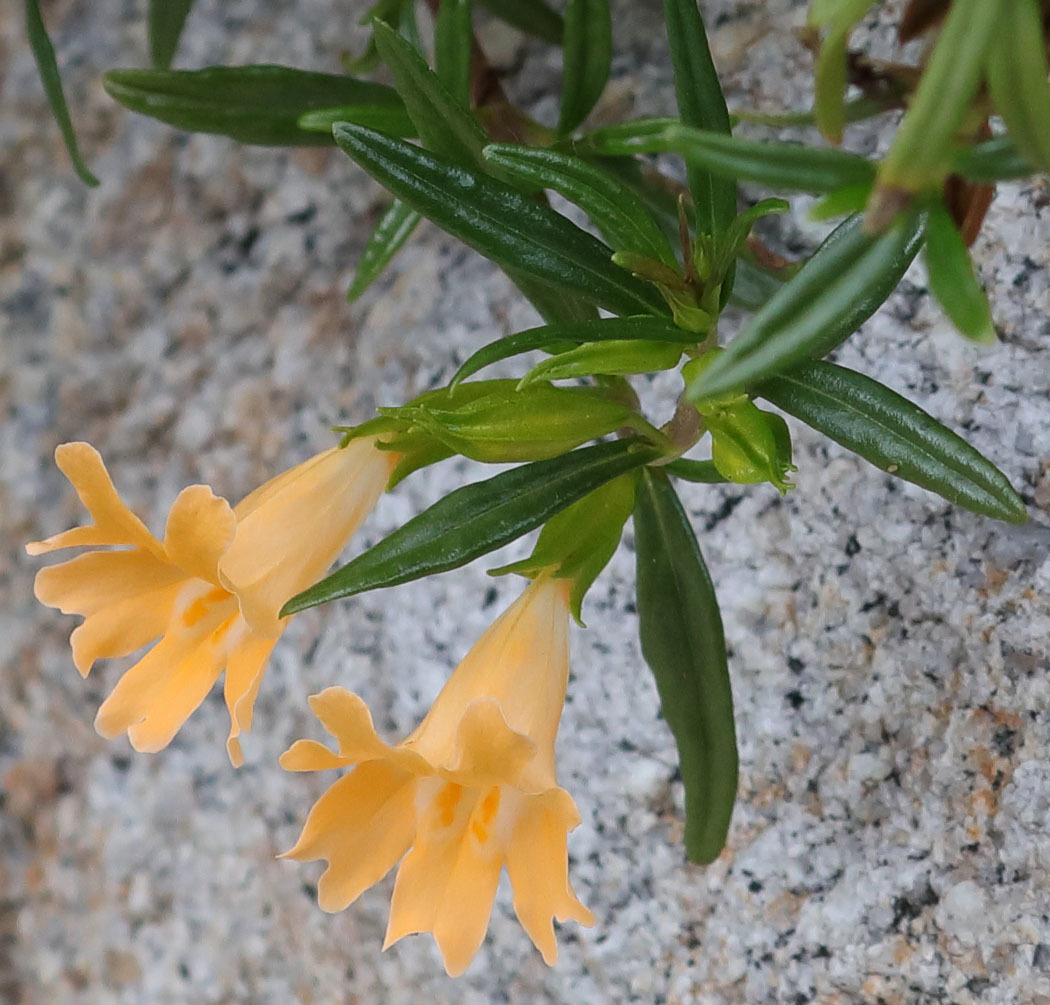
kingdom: Plantae
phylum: Tracheophyta
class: Magnoliopsida
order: Lamiales
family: Phrymaceae
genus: Diplacus
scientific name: Diplacus linearis
